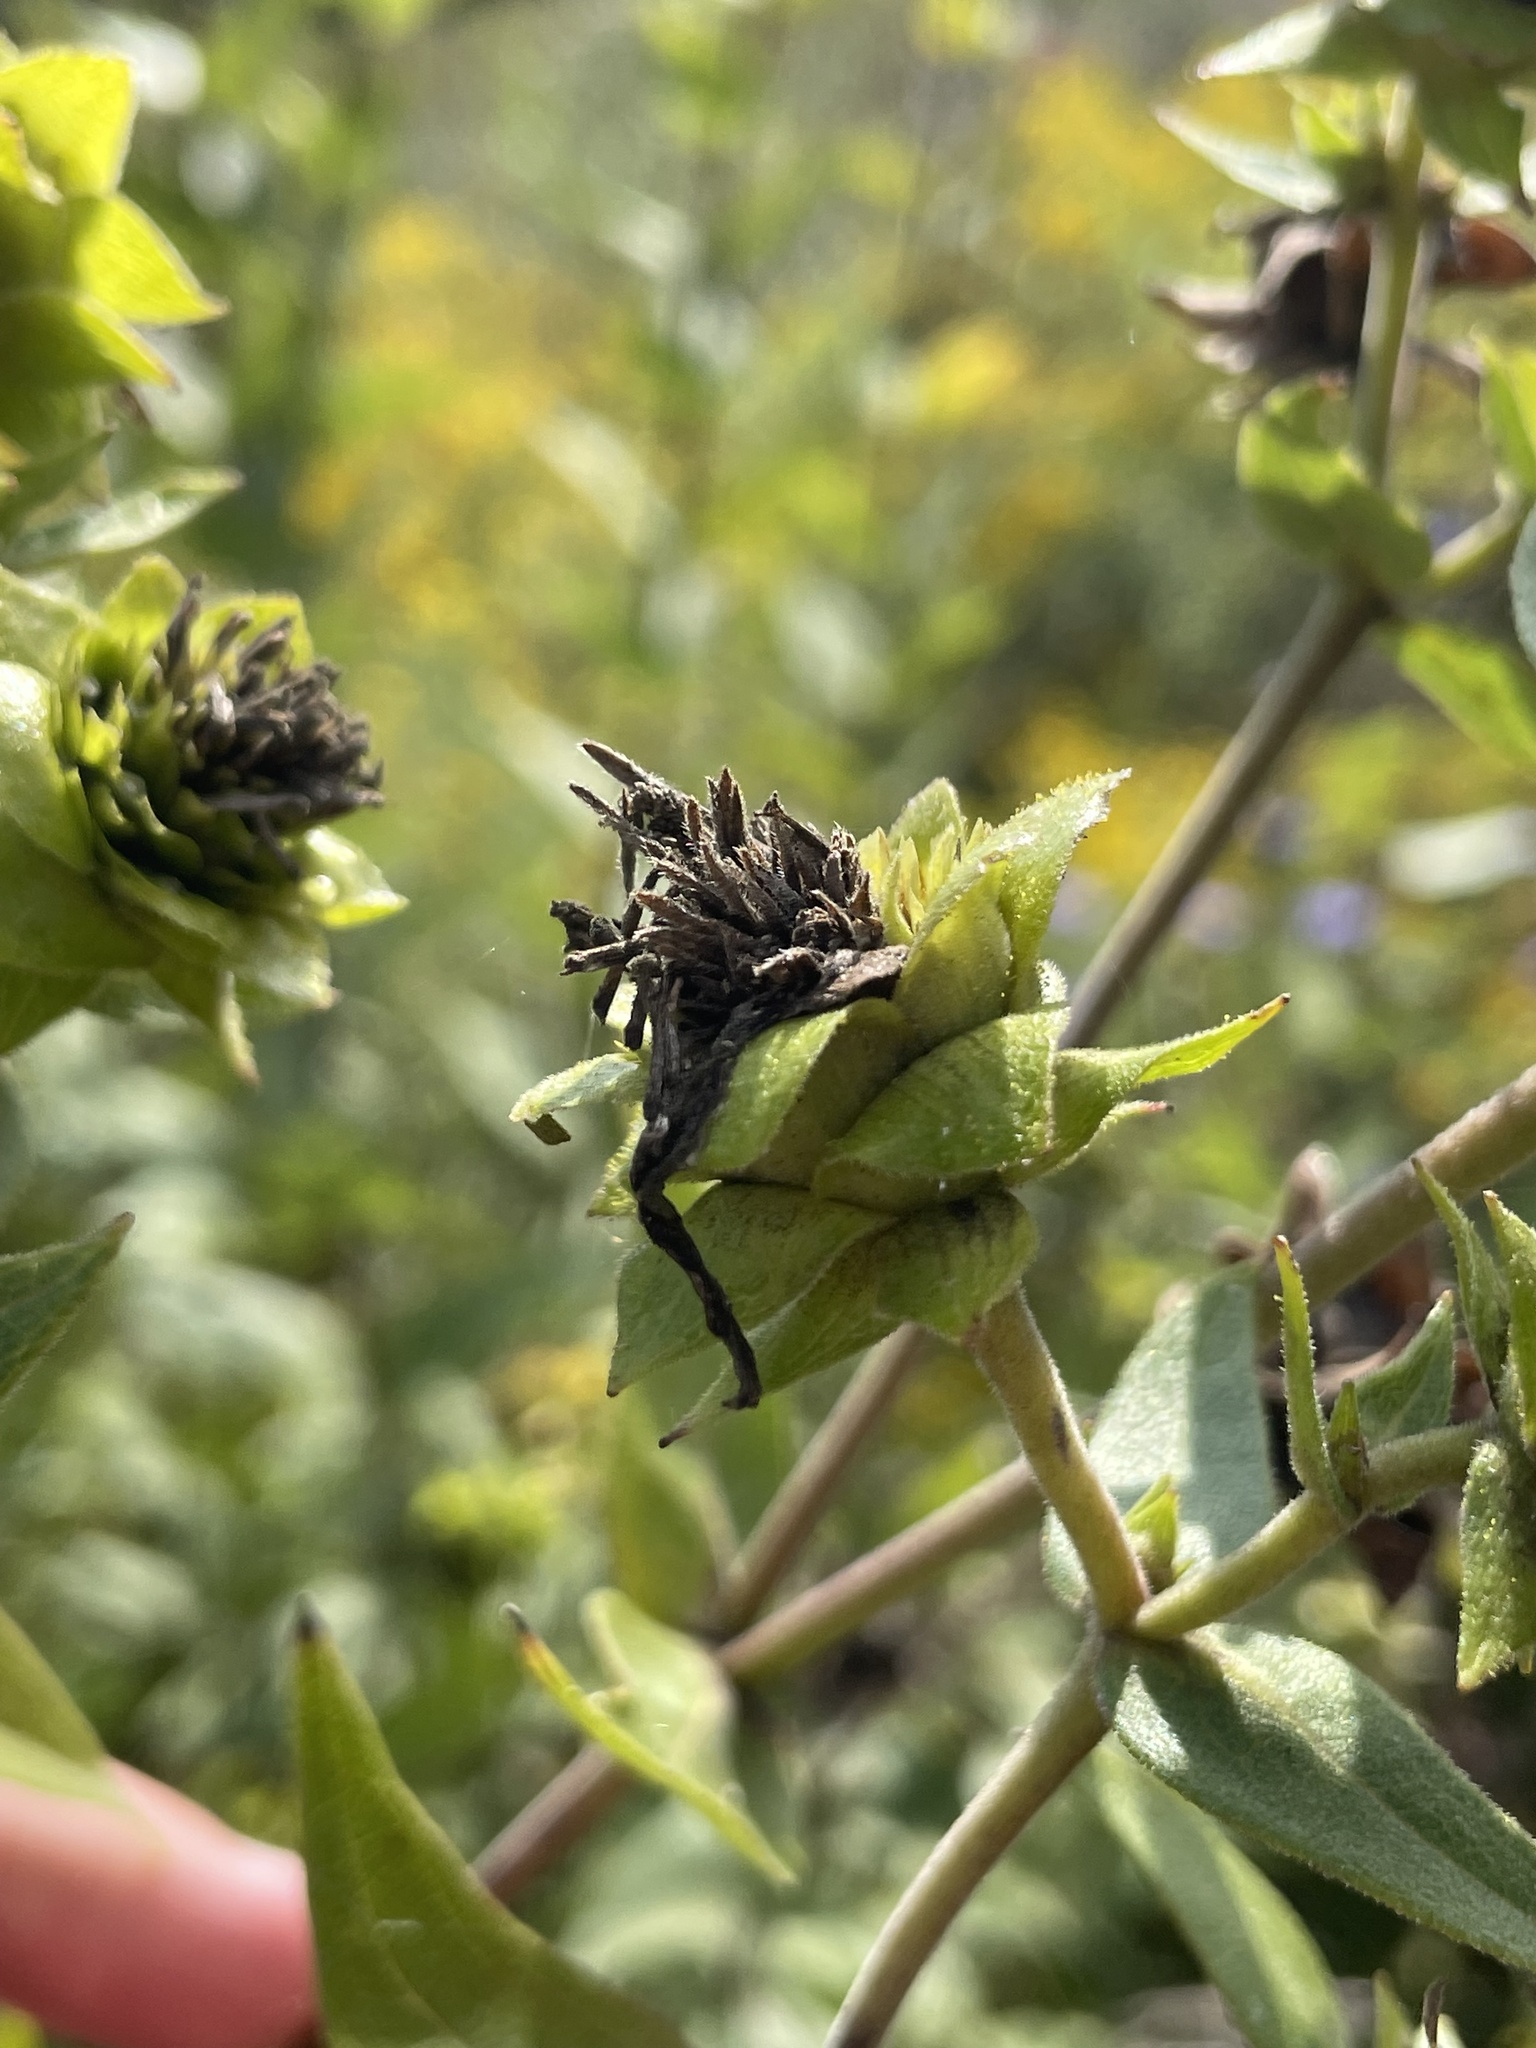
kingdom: Plantae
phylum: Tracheophyta
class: Magnoliopsida
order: Asterales
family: Asteraceae
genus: Silphium
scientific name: Silphium integrifolium
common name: Whole-leaf rosinweed
